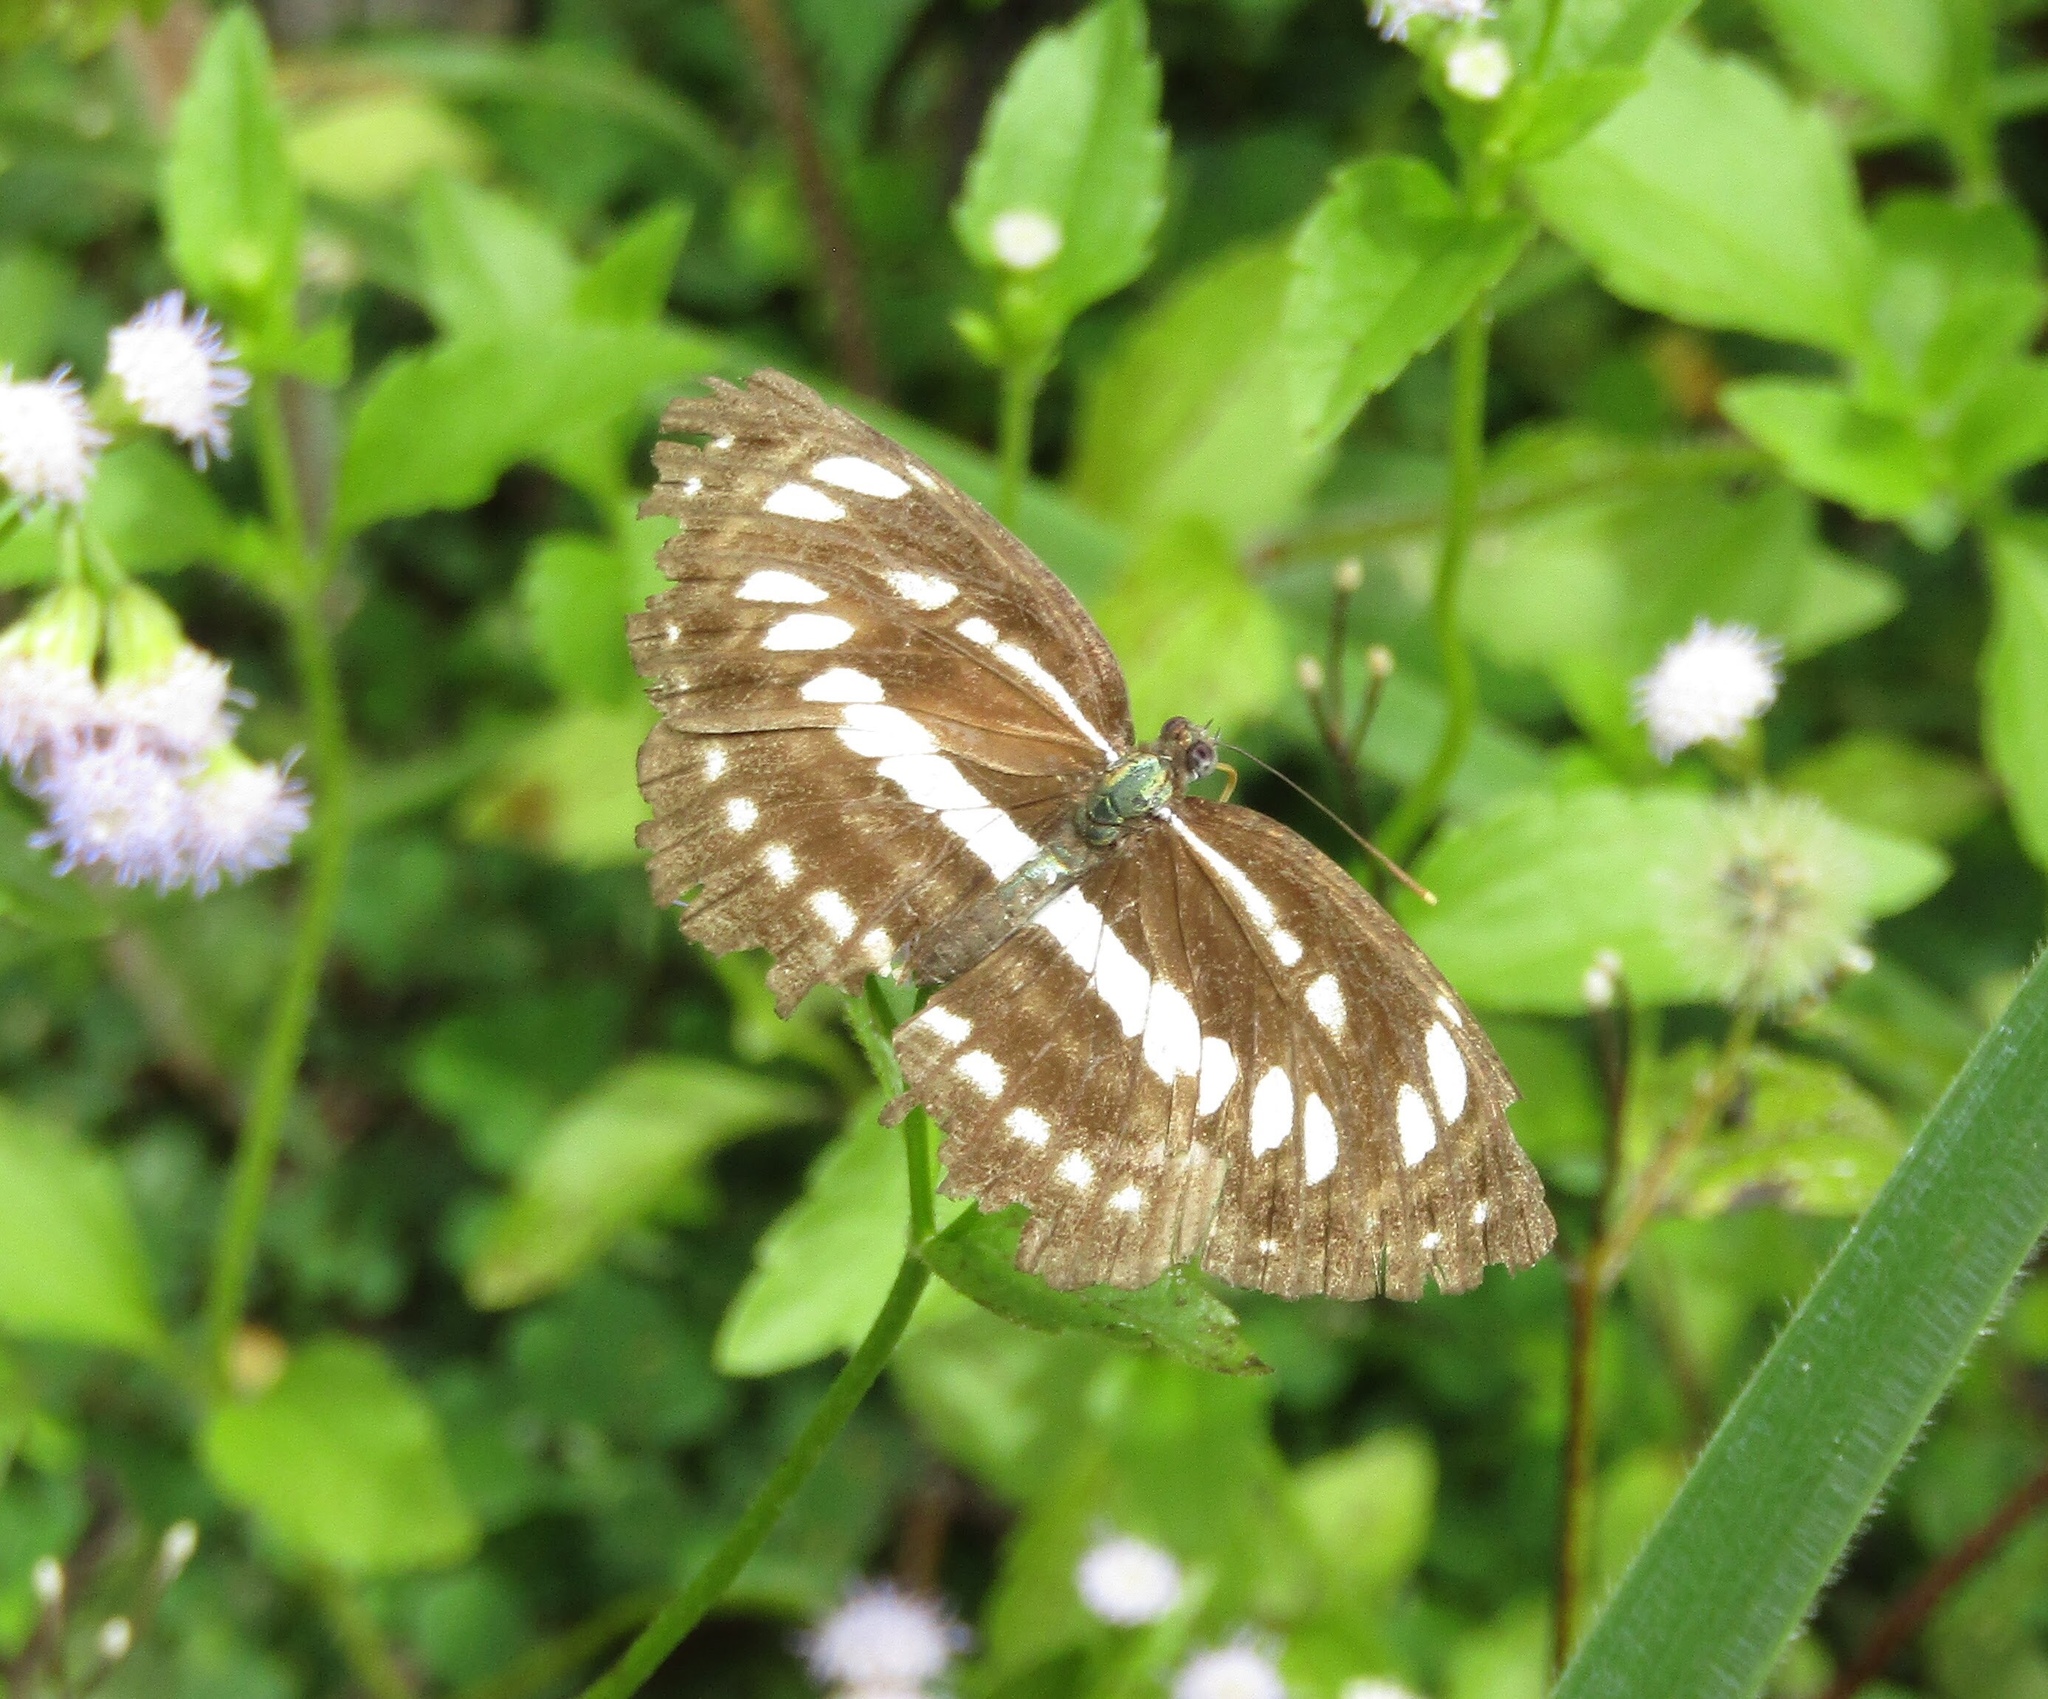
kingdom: Animalia
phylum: Arthropoda
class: Insecta
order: Lepidoptera
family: Nymphalidae
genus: Neptis
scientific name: Neptis hylas
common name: Common sailer
